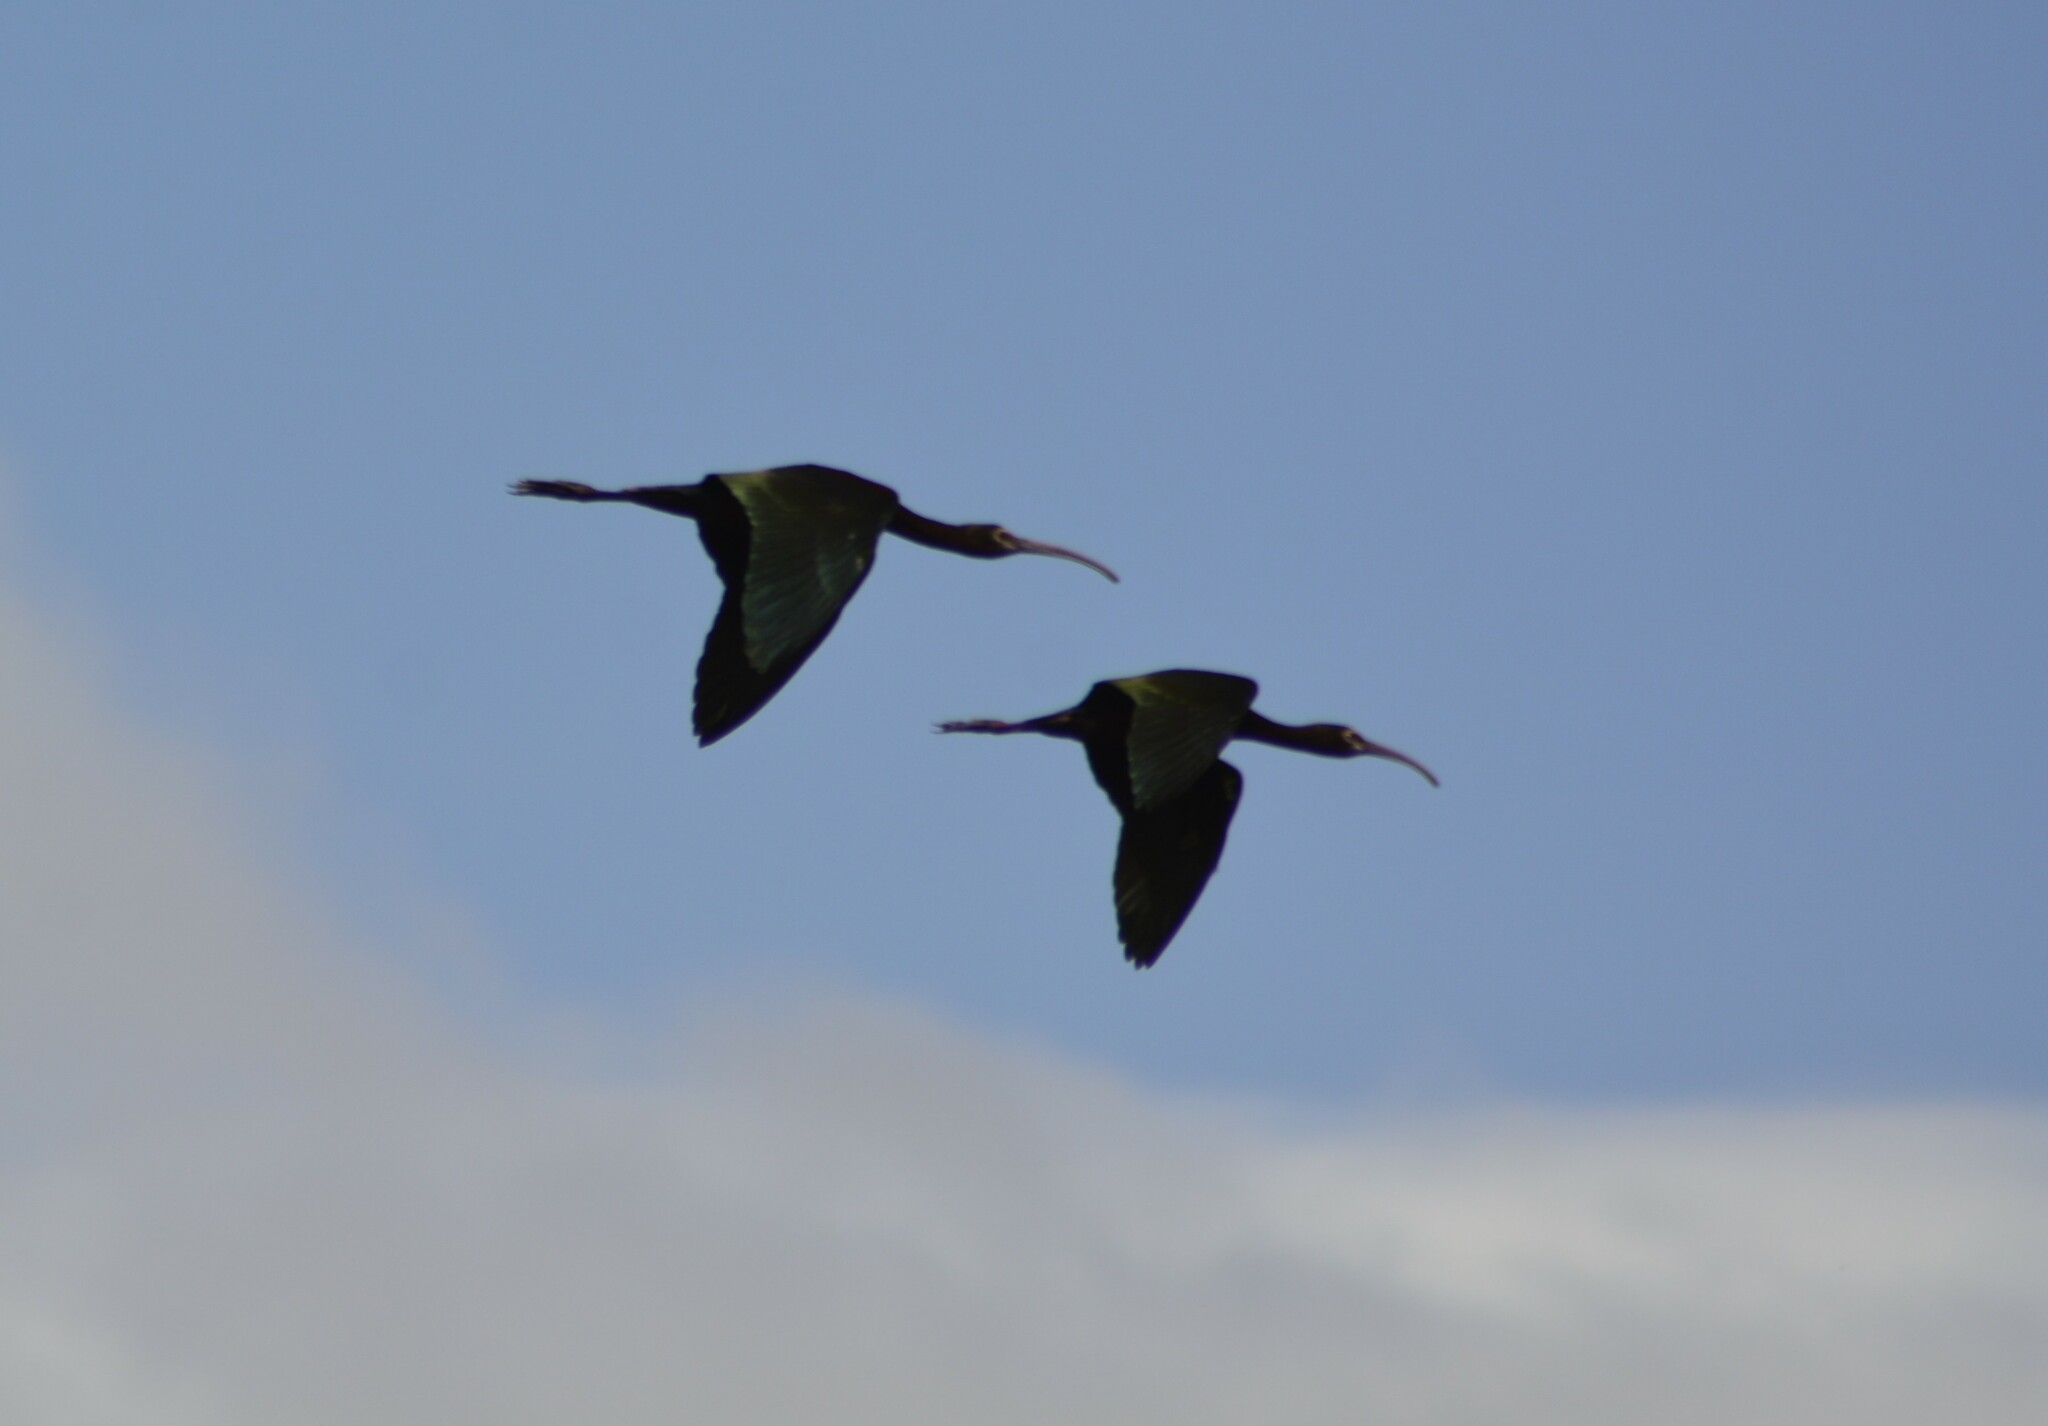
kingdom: Animalia
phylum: Chordata
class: Aves
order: Pelecaniformes
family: Threskiornithidae
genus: Plegadis
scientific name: Plegadis chihi
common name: White-faced ibis
